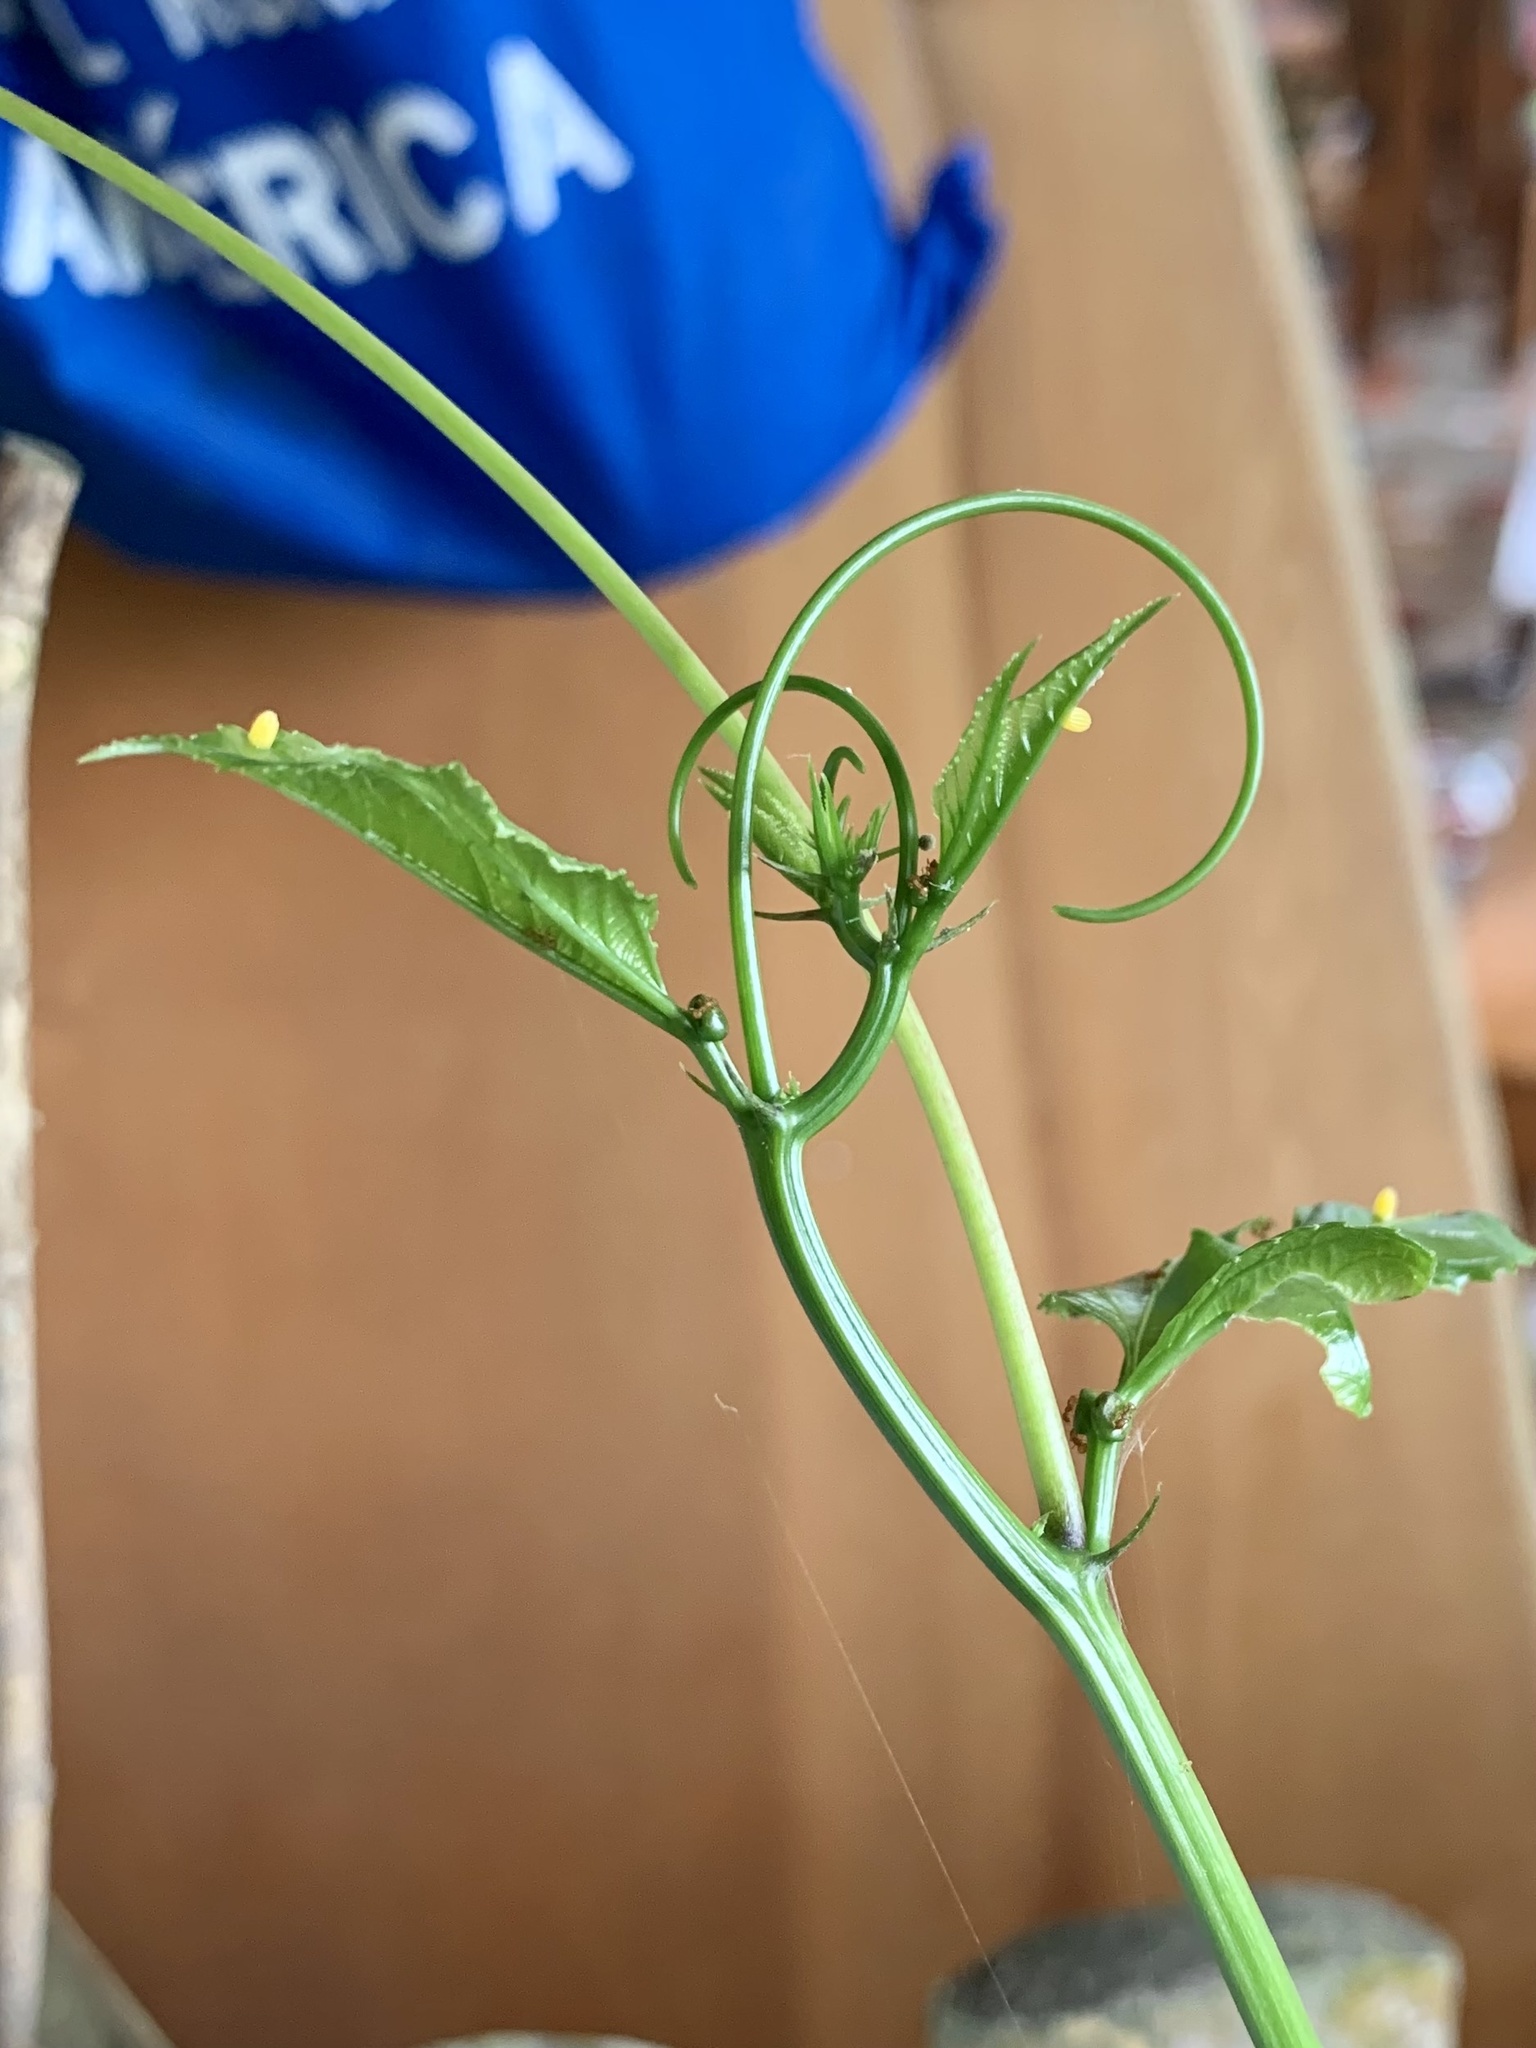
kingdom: Animalia
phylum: Arthropoda
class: Insecta
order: Lepidoptera
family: Nymphalidae
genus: Heliconius
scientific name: Heliconius erato
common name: Common patch longwing
